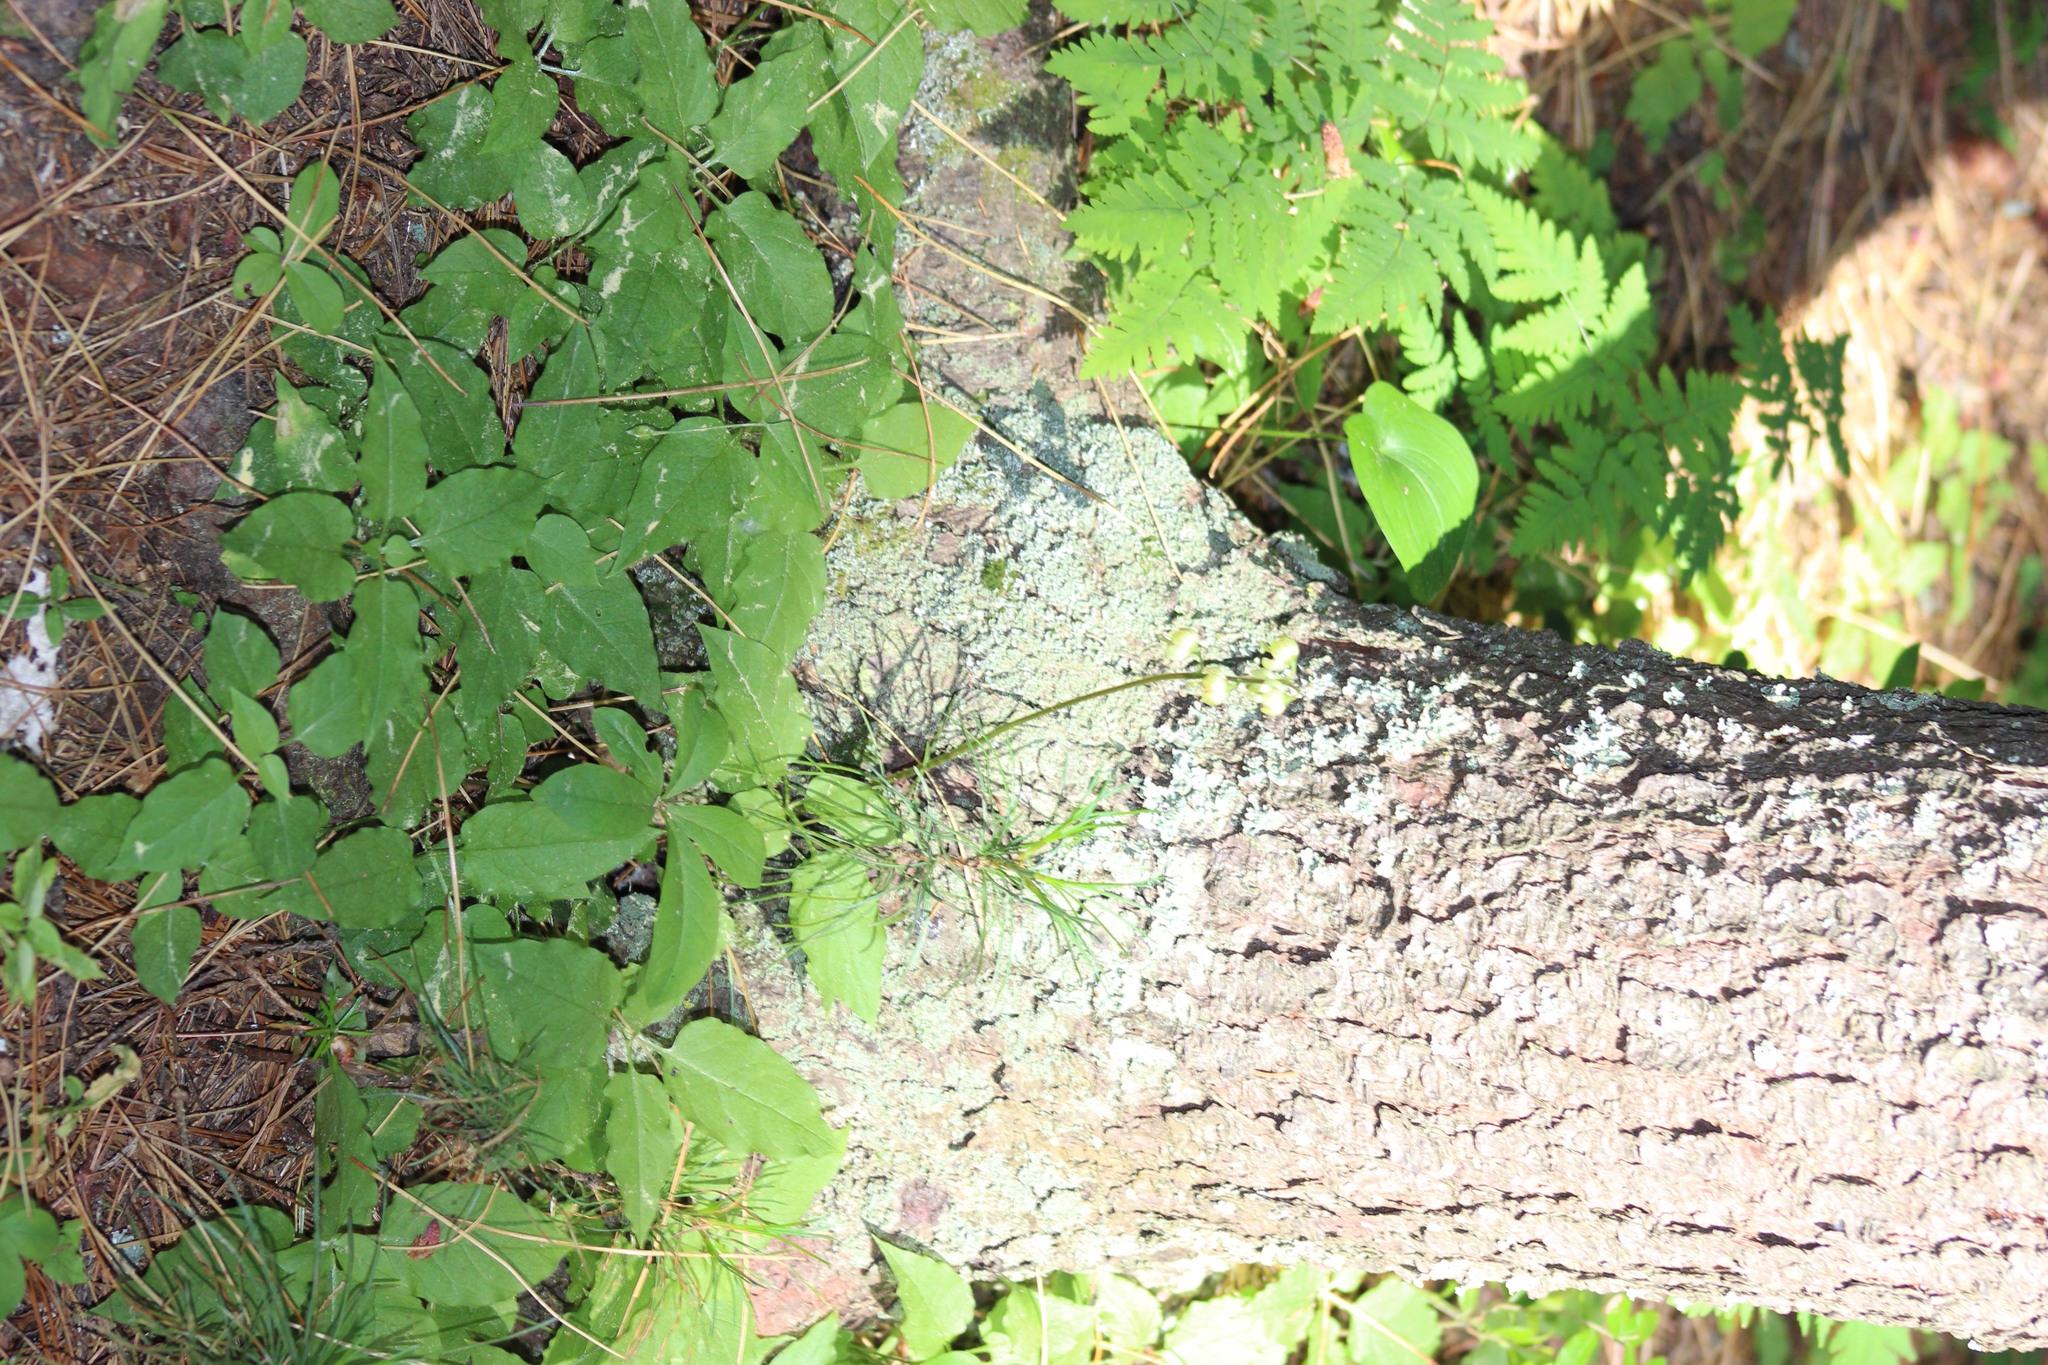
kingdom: Plantae
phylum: Tracheophyta
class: Magnoliopsida
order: Ericales
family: Ericaceae
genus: Pyrola
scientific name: Pyrola chlorantha
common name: Green wintergreen
